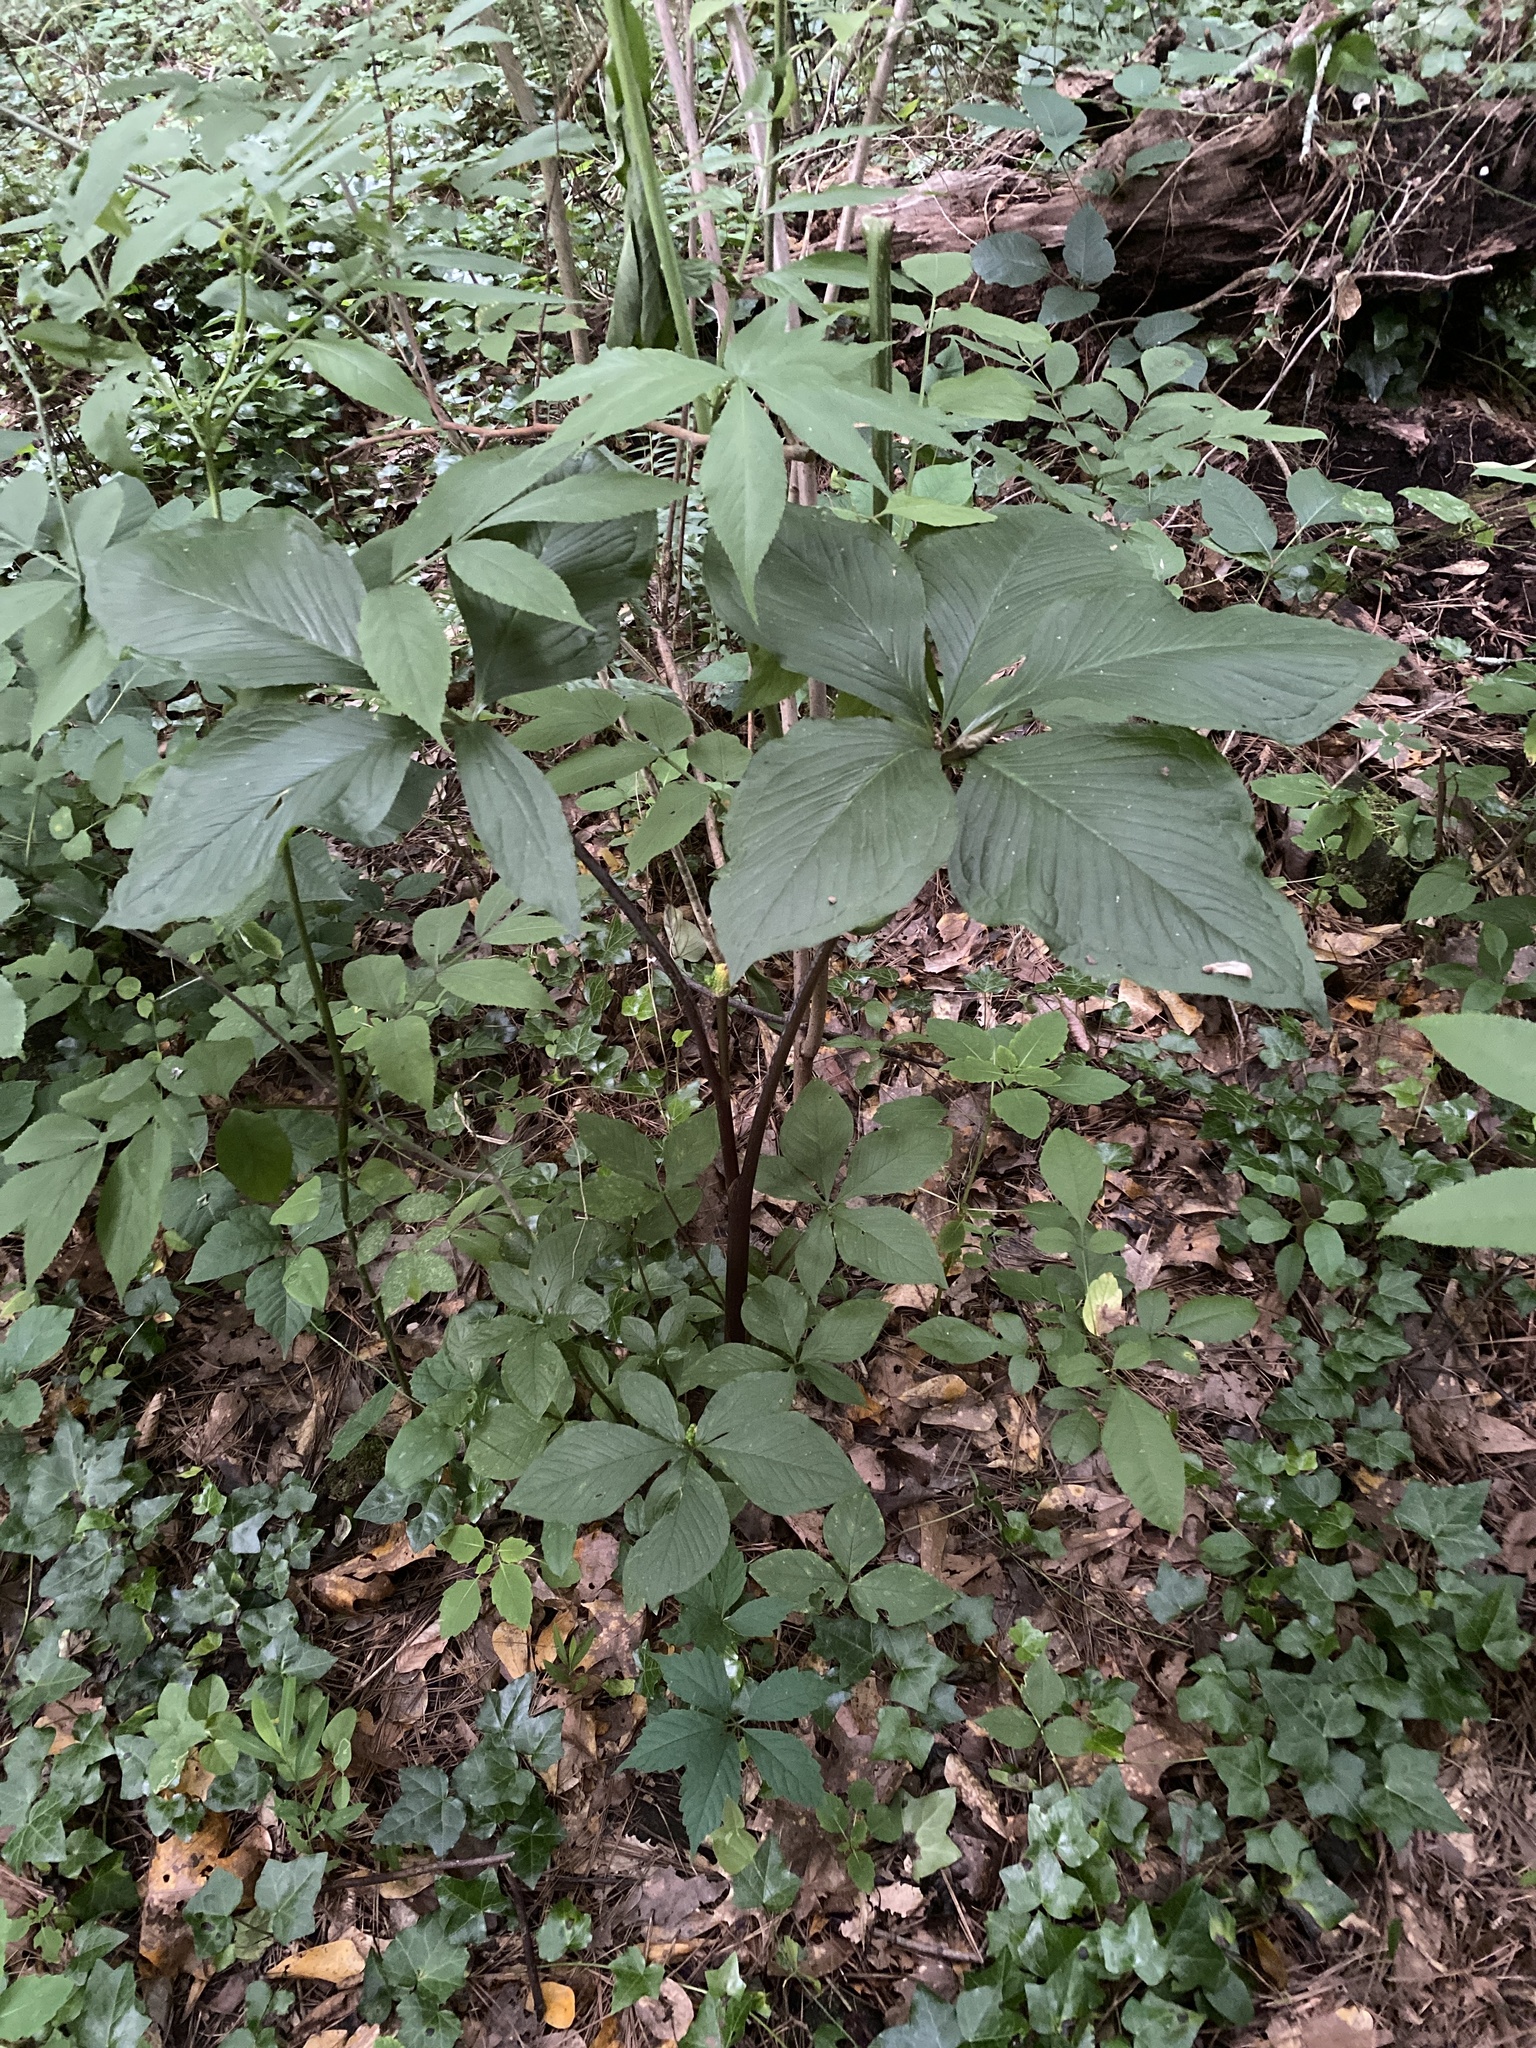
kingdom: Plantae
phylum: Tracheophyta
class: Liliopsida
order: Alismatales
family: Araceae
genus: Arisaema
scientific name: Arisaema quinatum
